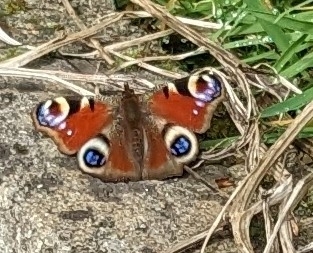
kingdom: Animalia
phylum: Arthropoda
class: Insecta
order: Lepidoptera
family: Nymphalidae
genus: Aglais
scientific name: Aglais io
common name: Peacock
